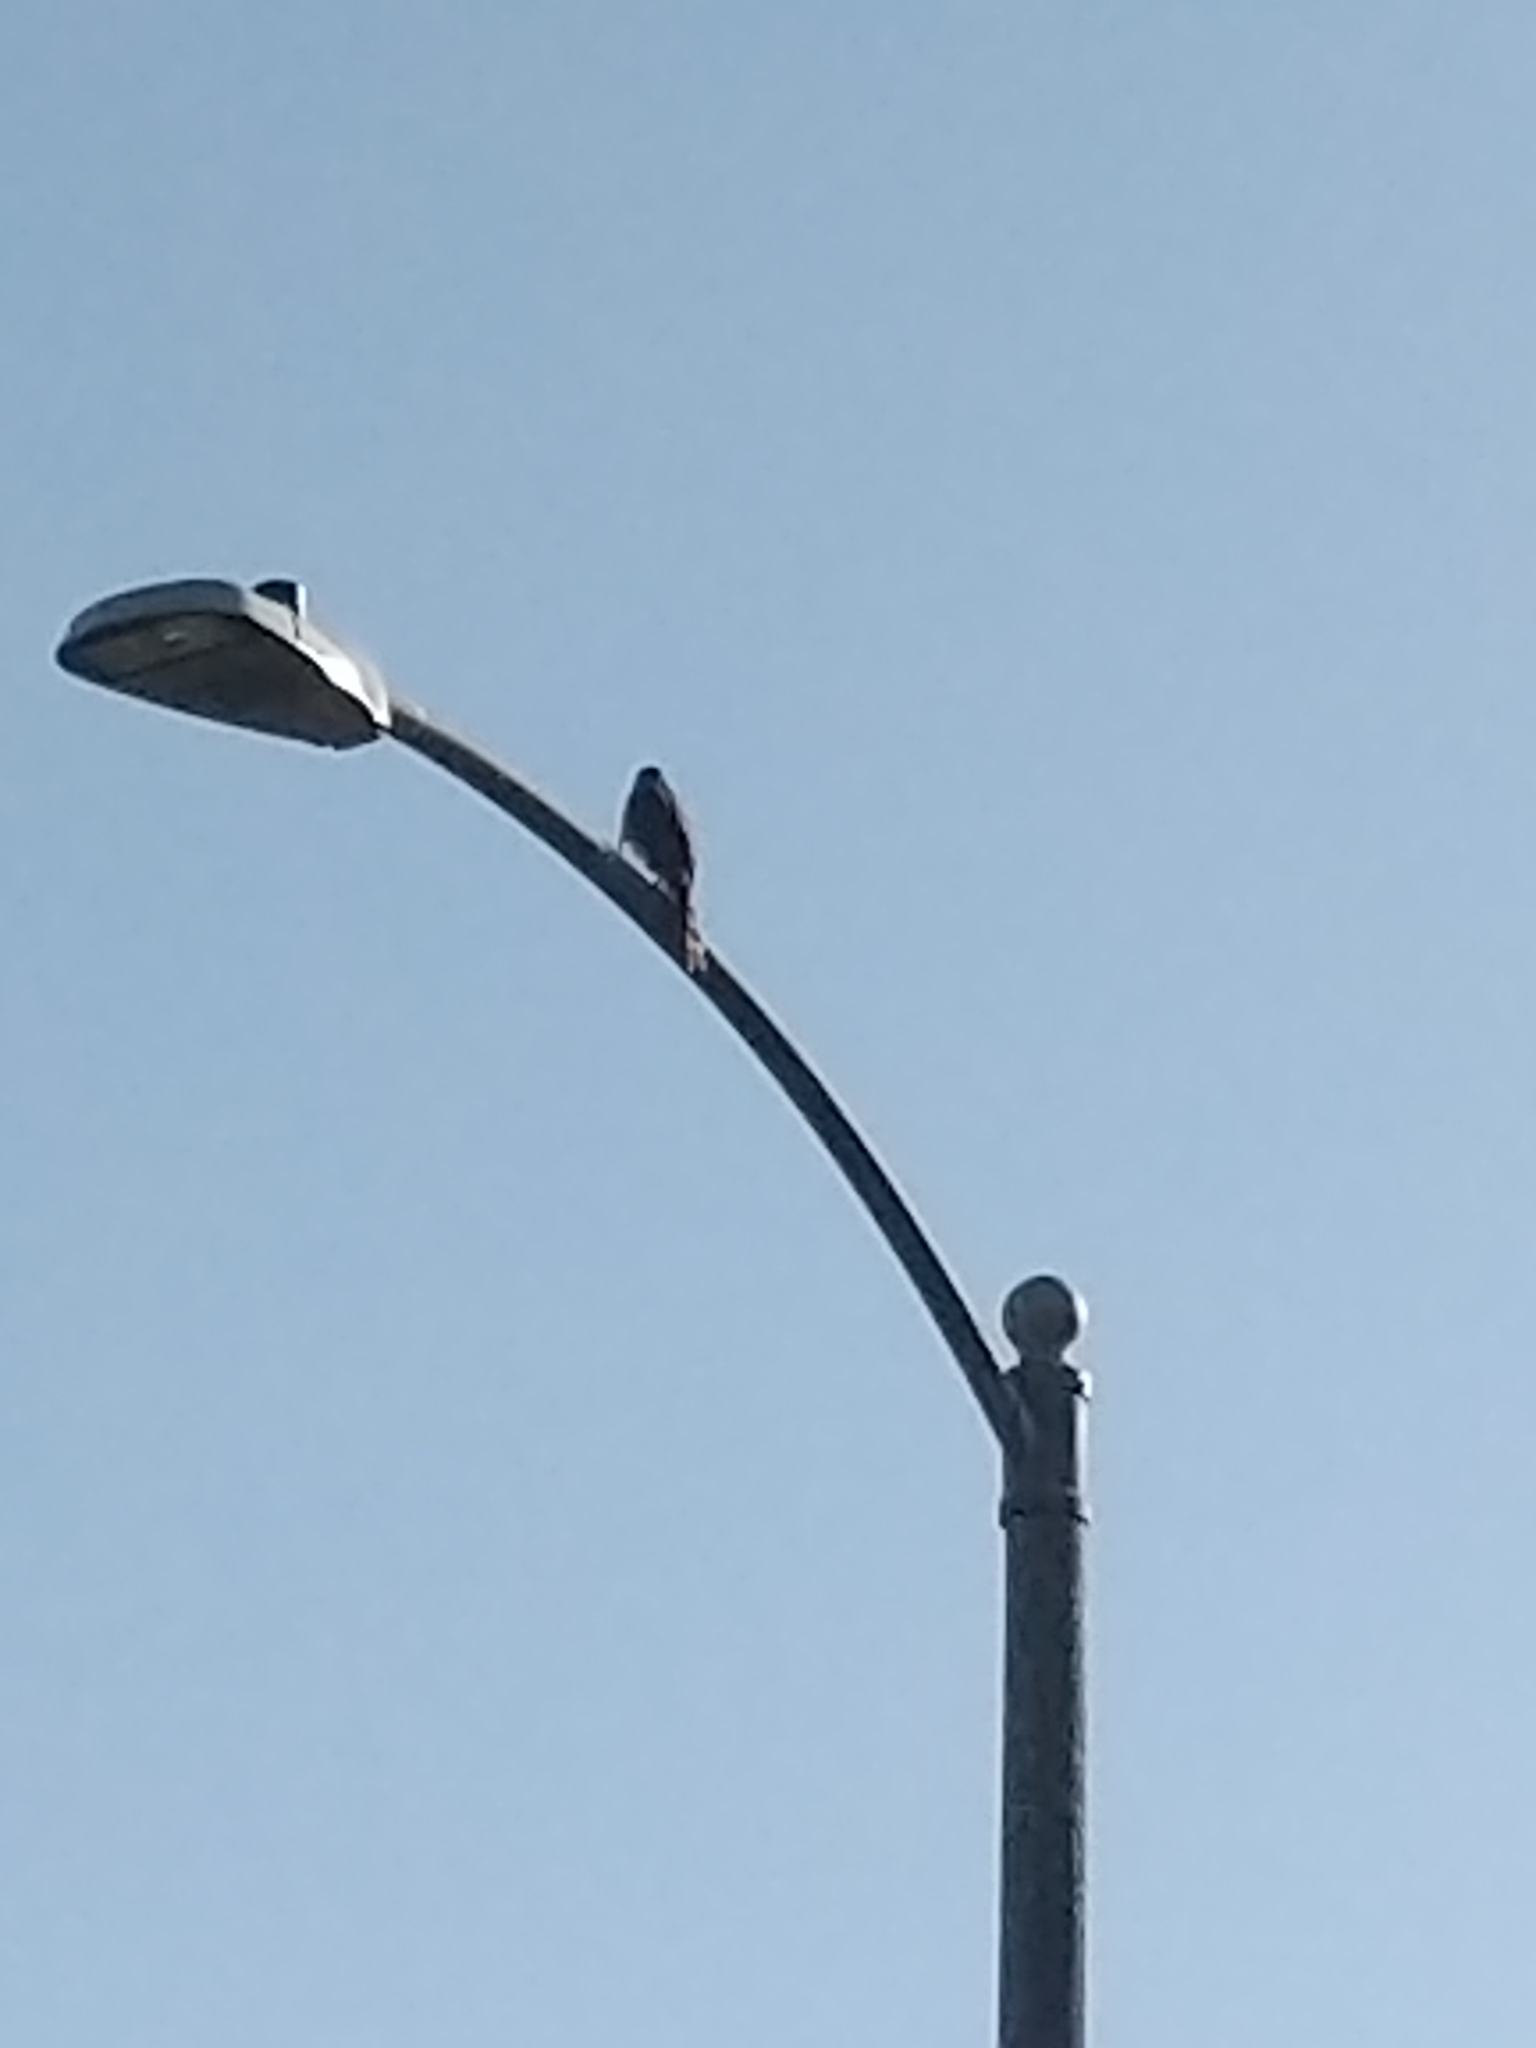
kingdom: Animalia
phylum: Chordata
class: Aves
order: Accipitriformes
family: Accipitridae
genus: Accipiter
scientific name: Accipiter cooperii
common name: Cooper's hawk
